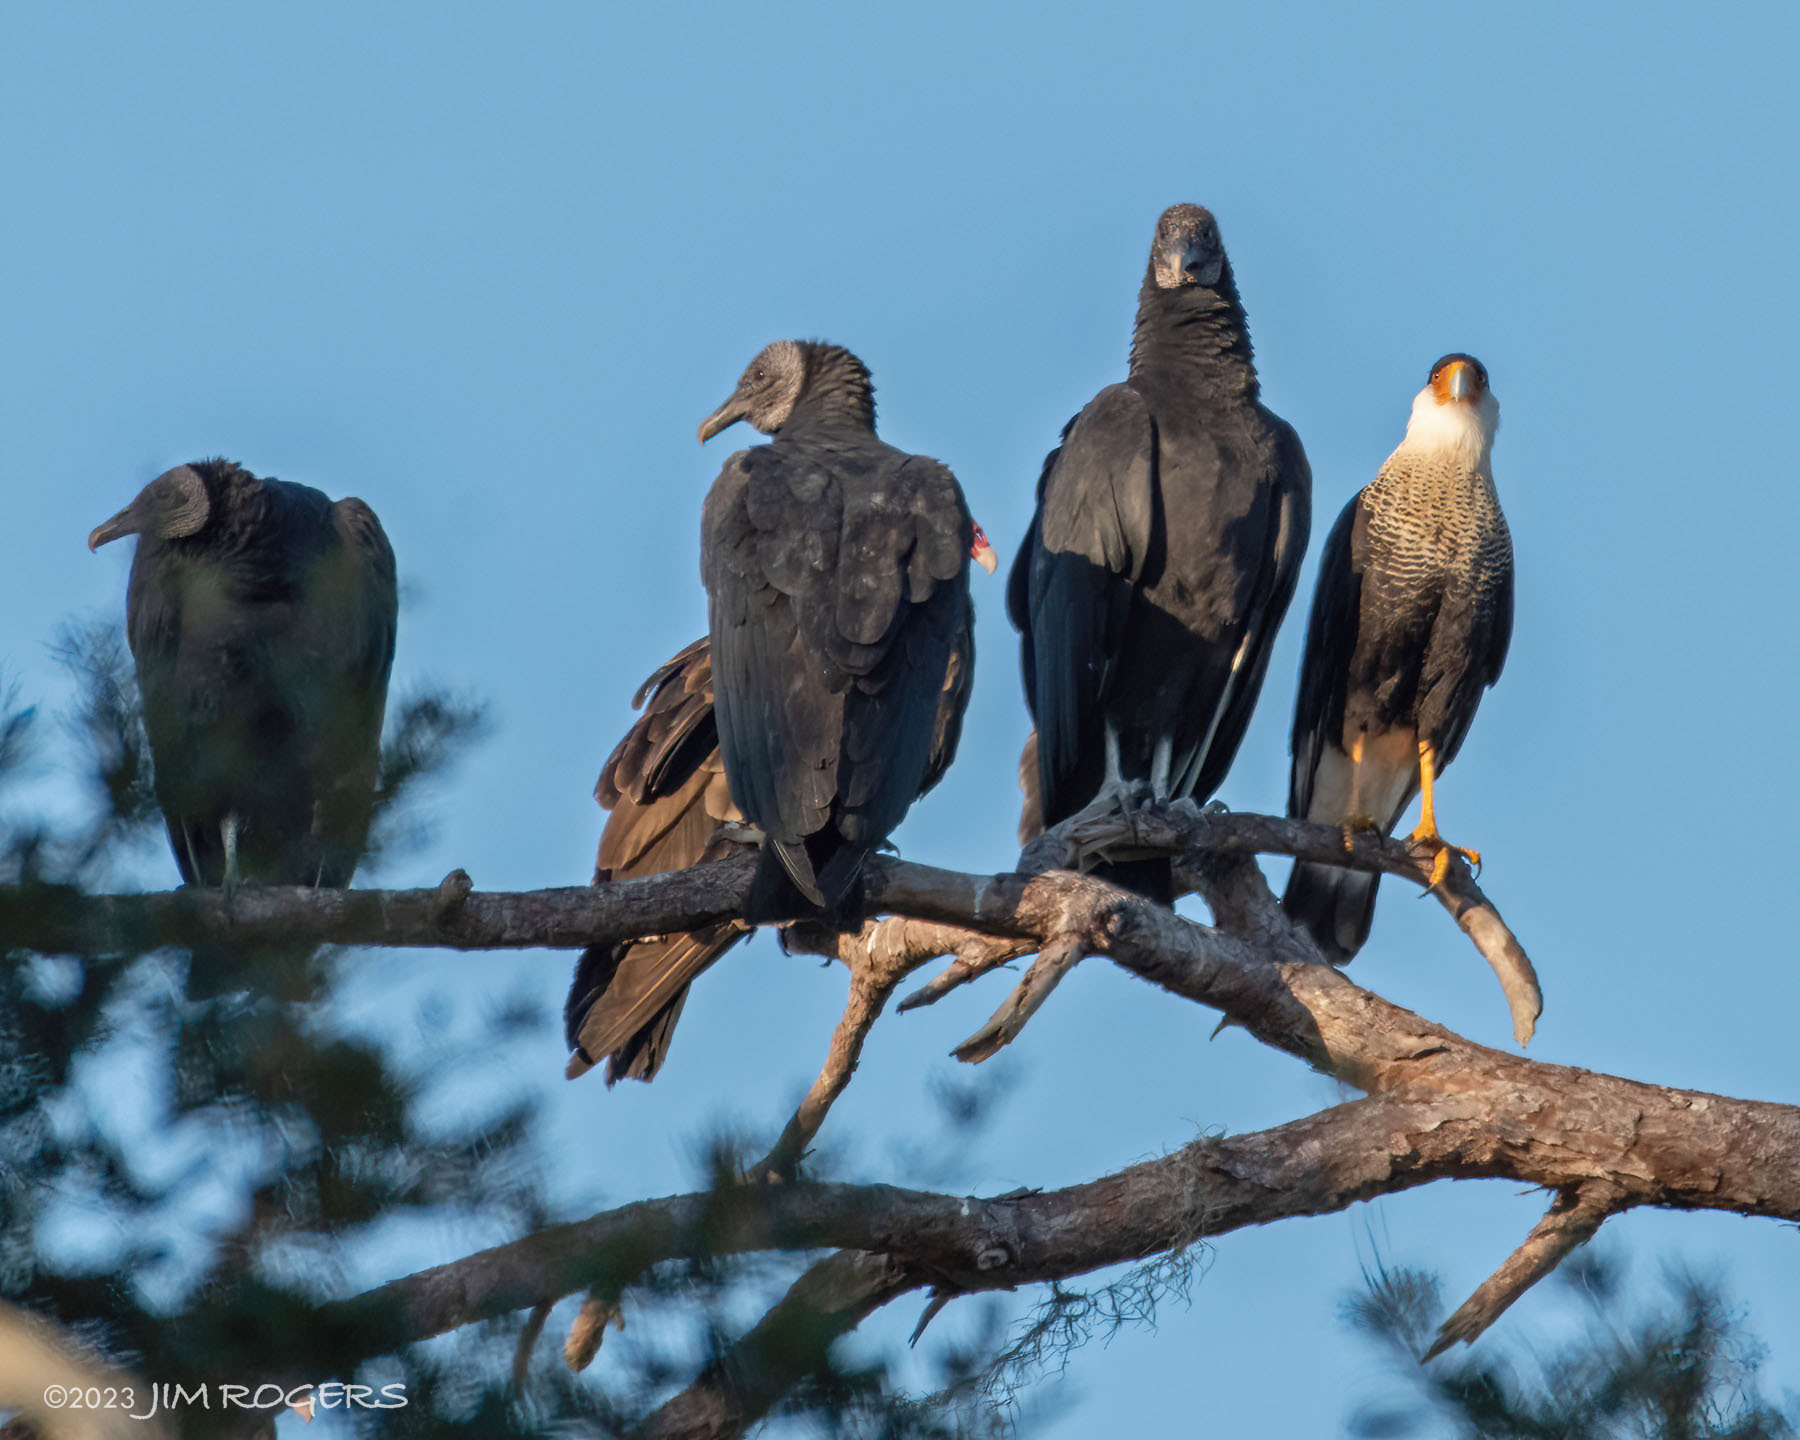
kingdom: Animalia
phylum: Chordata
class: Aves
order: Falconiformes
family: Falconidae
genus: Caracara
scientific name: Caracara plancus
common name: Southern caracara
